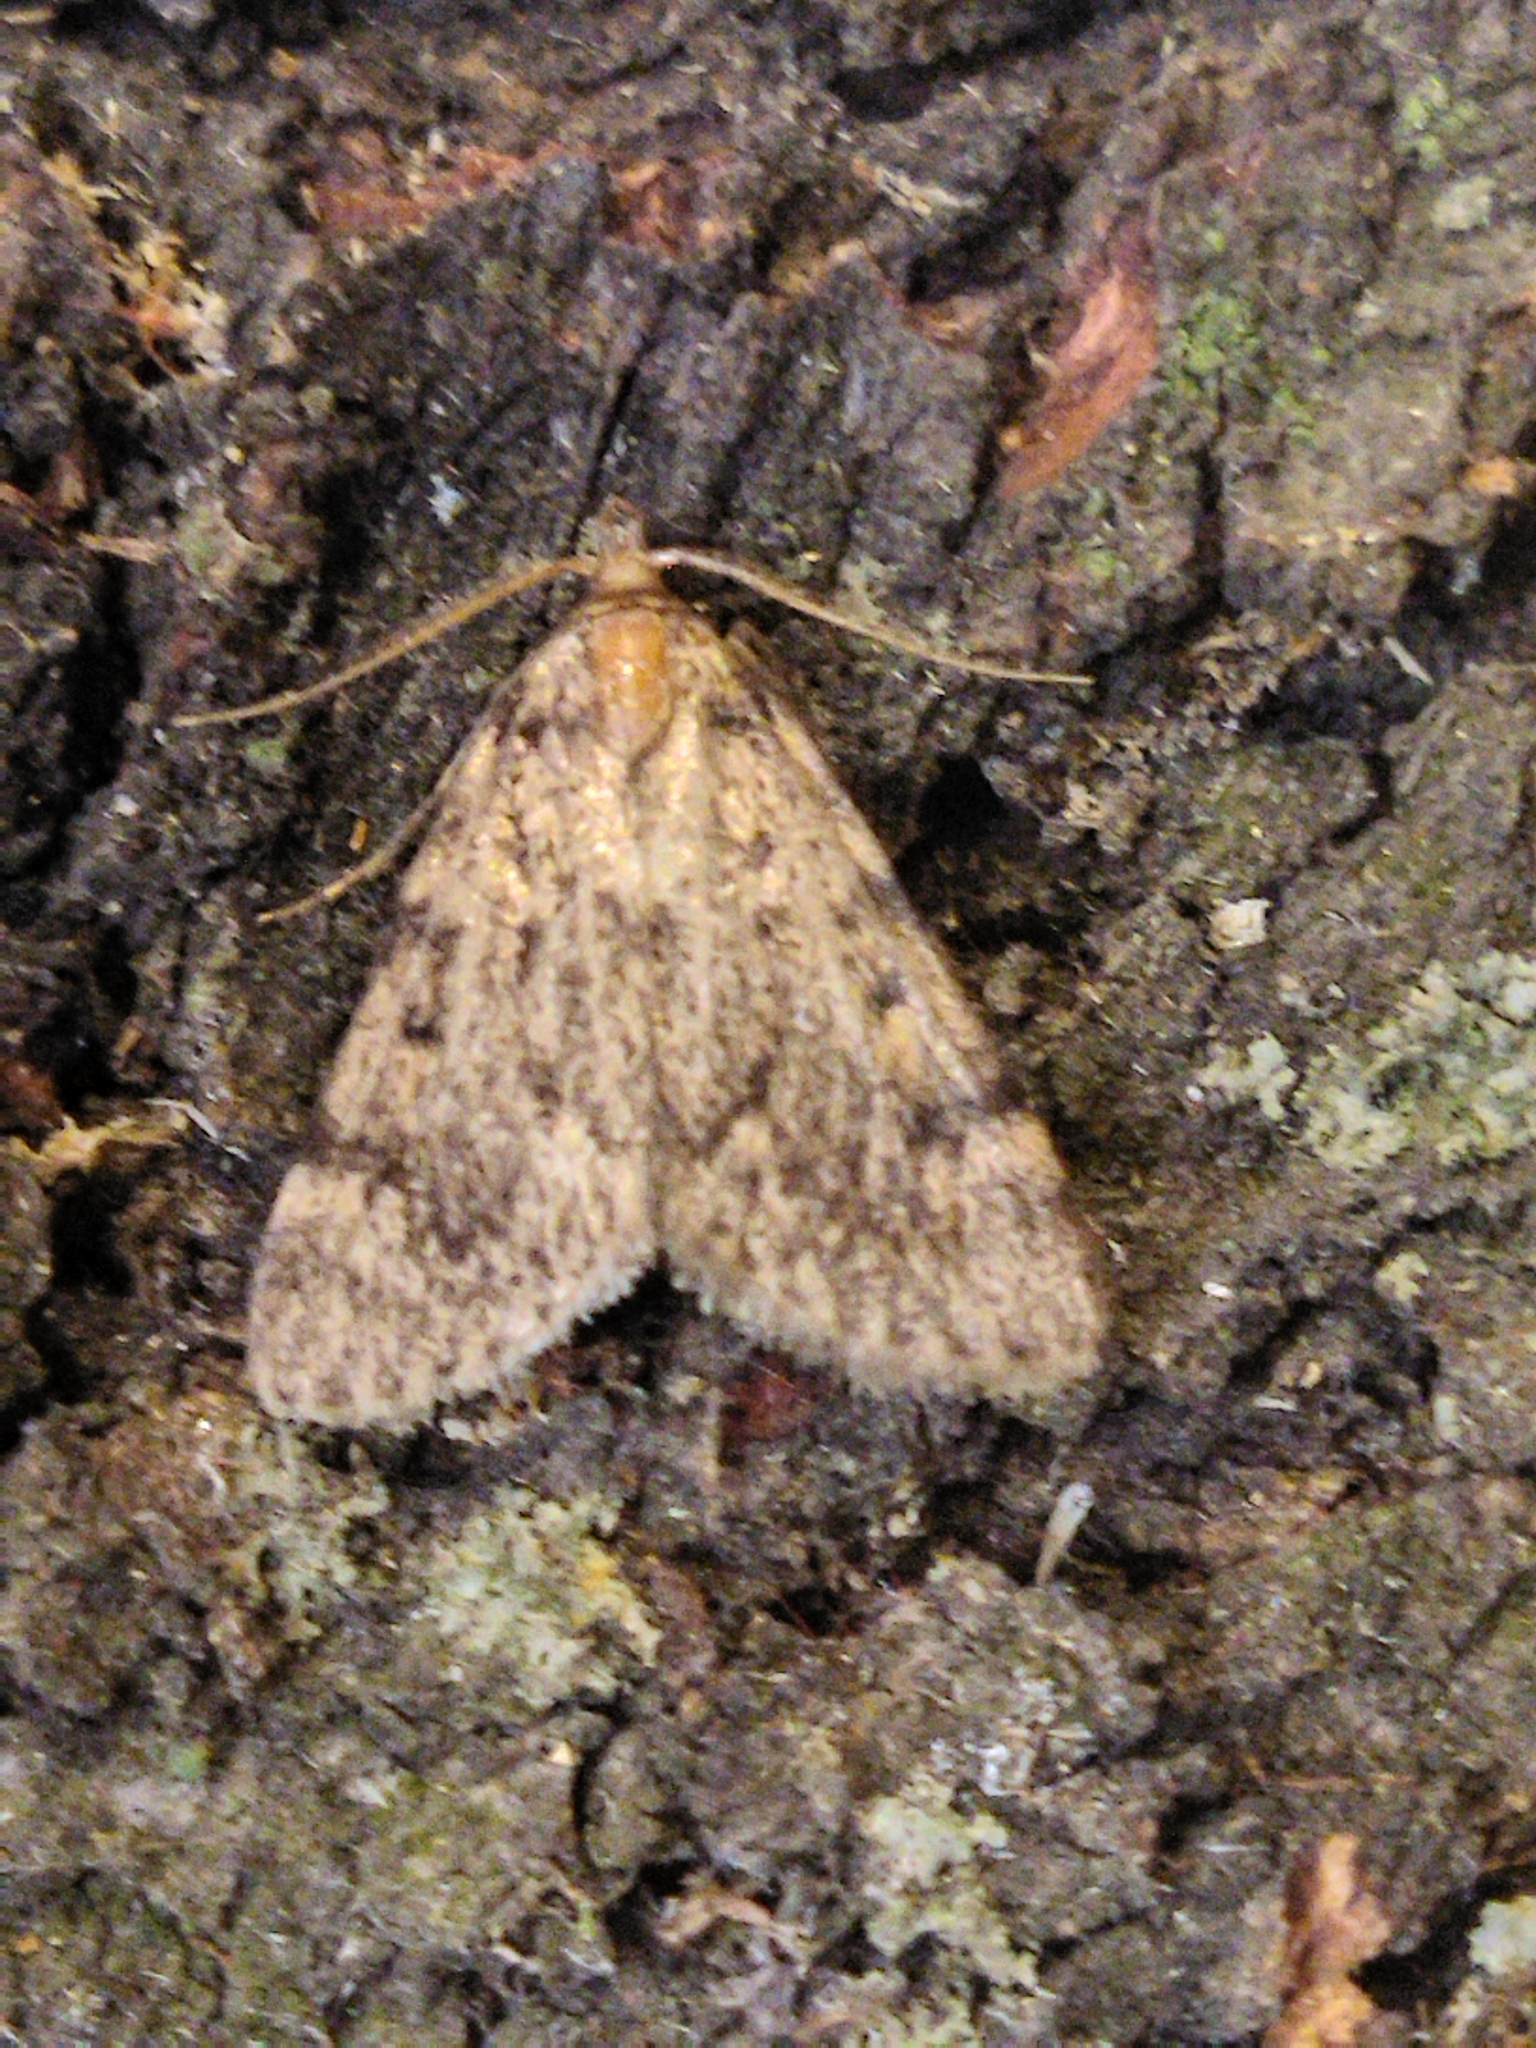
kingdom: Animalia
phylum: Arthropoda
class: Insecta
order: Lepidoptera
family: Pyralidae
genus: Aglossa
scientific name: Aglossa pinguinalis
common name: Large tabby
